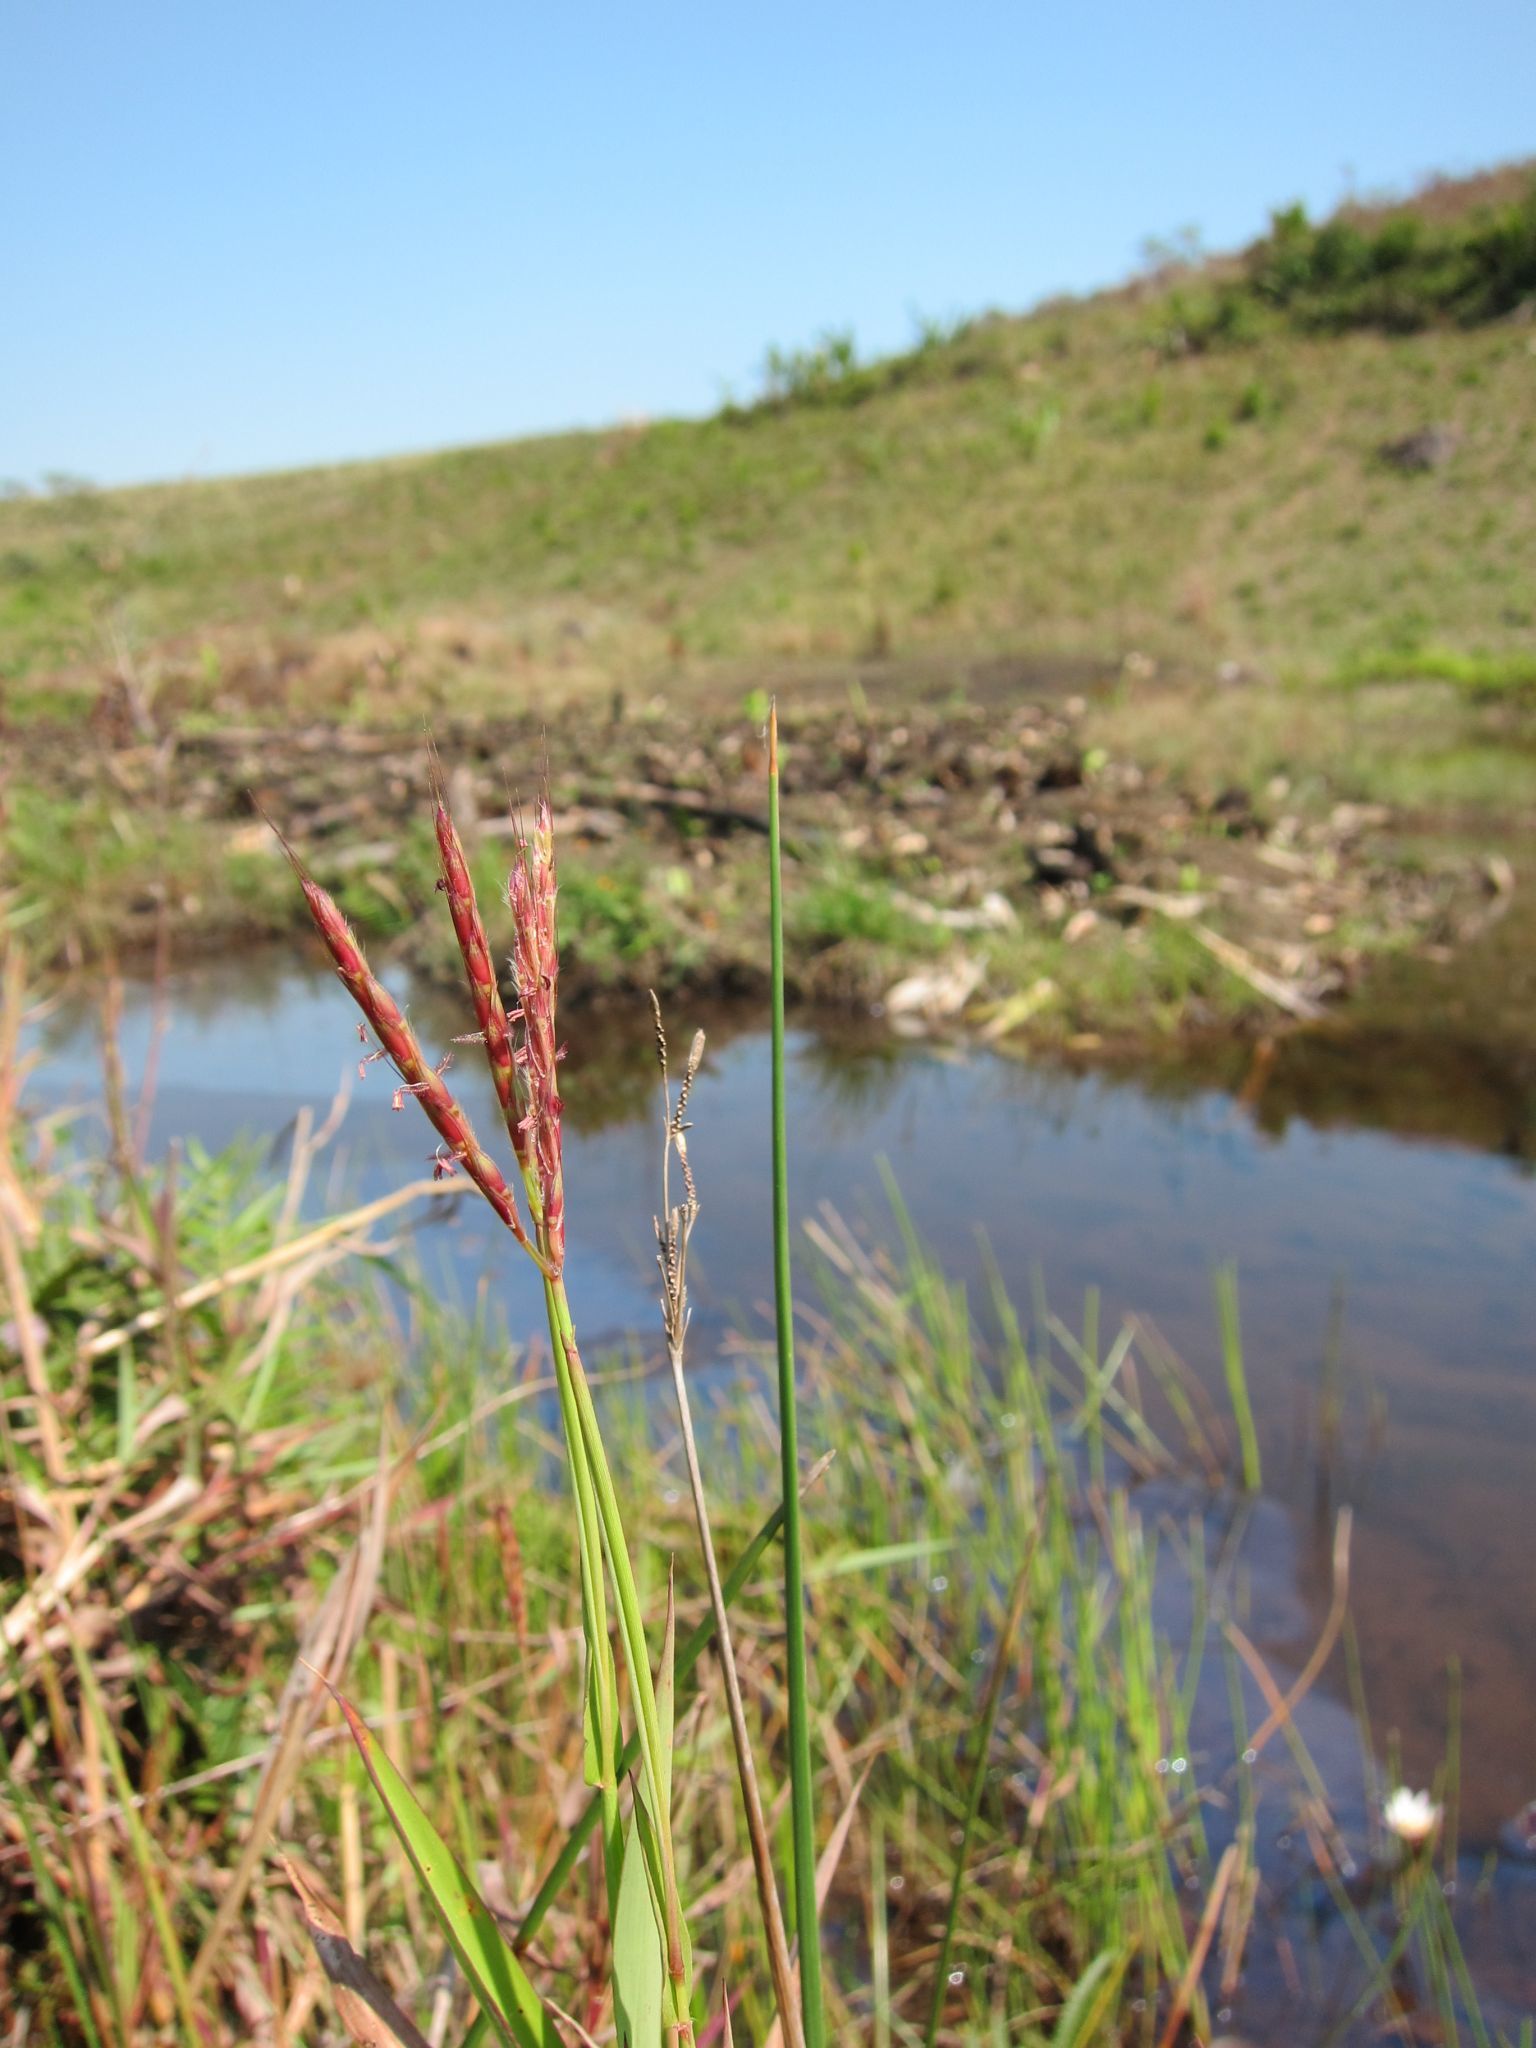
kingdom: Plantae
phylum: Tracheophyta
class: Liliopsida
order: Poales
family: Poaceae
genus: Ischaemum
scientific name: Ischaemum heterotrichum
